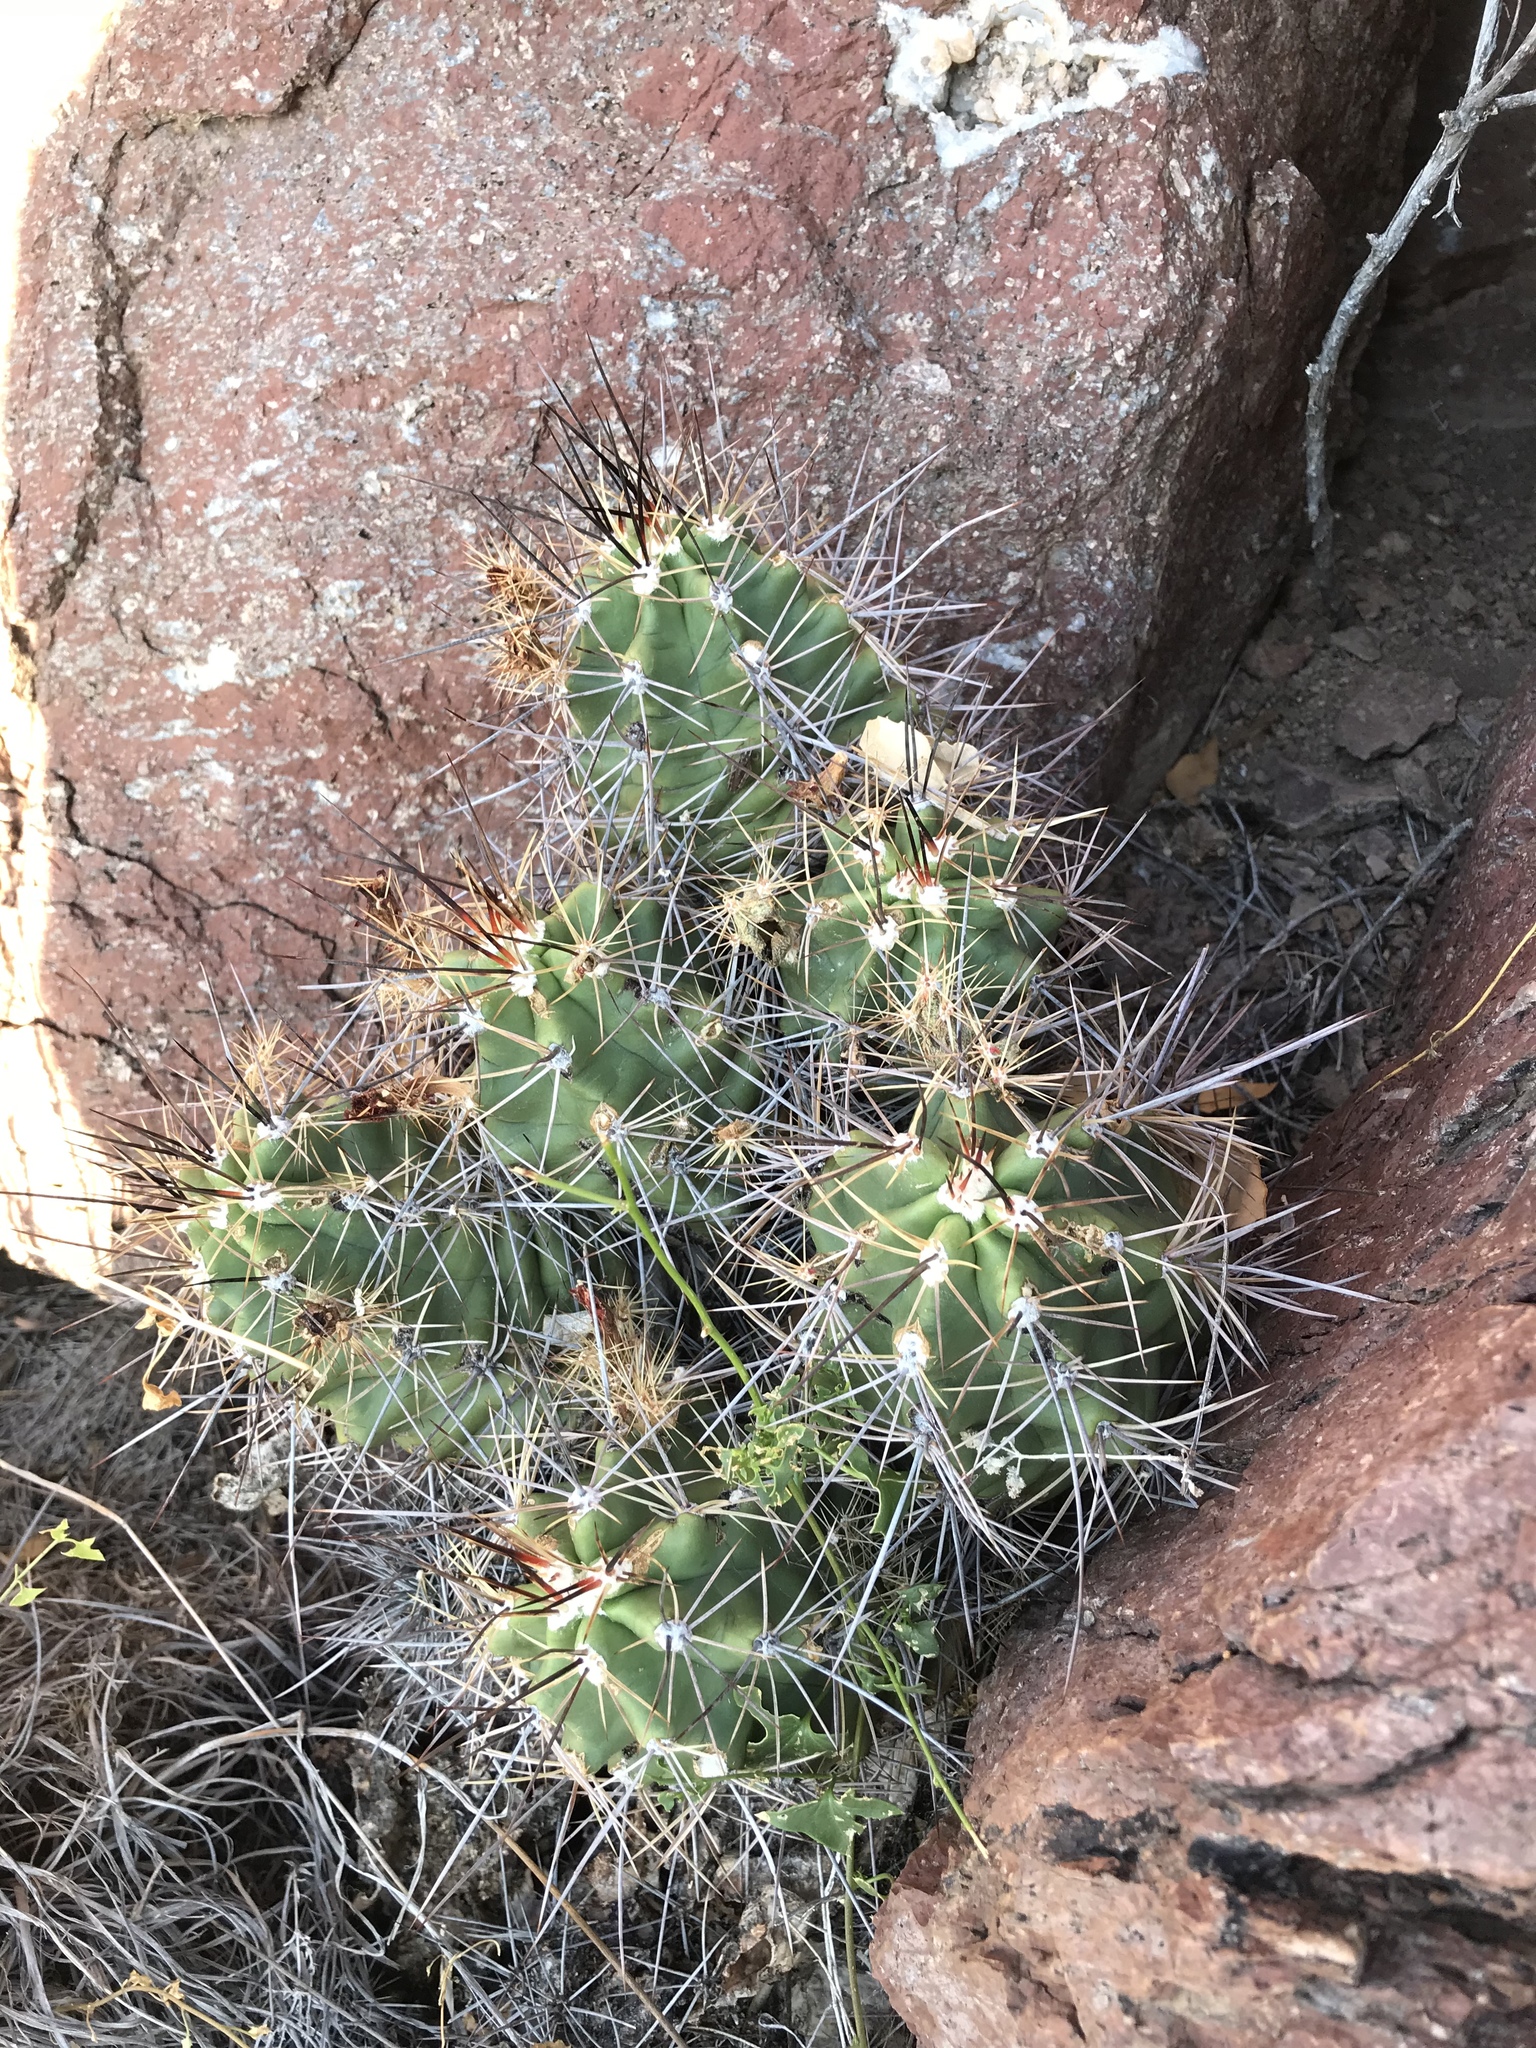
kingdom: Plantae
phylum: Tracheophyta
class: Magnoliopsida
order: Caryophyllales
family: Cactaceae
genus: Echinocereus
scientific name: Echinocereus coccineus
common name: Scarlet hedgehog cactus
